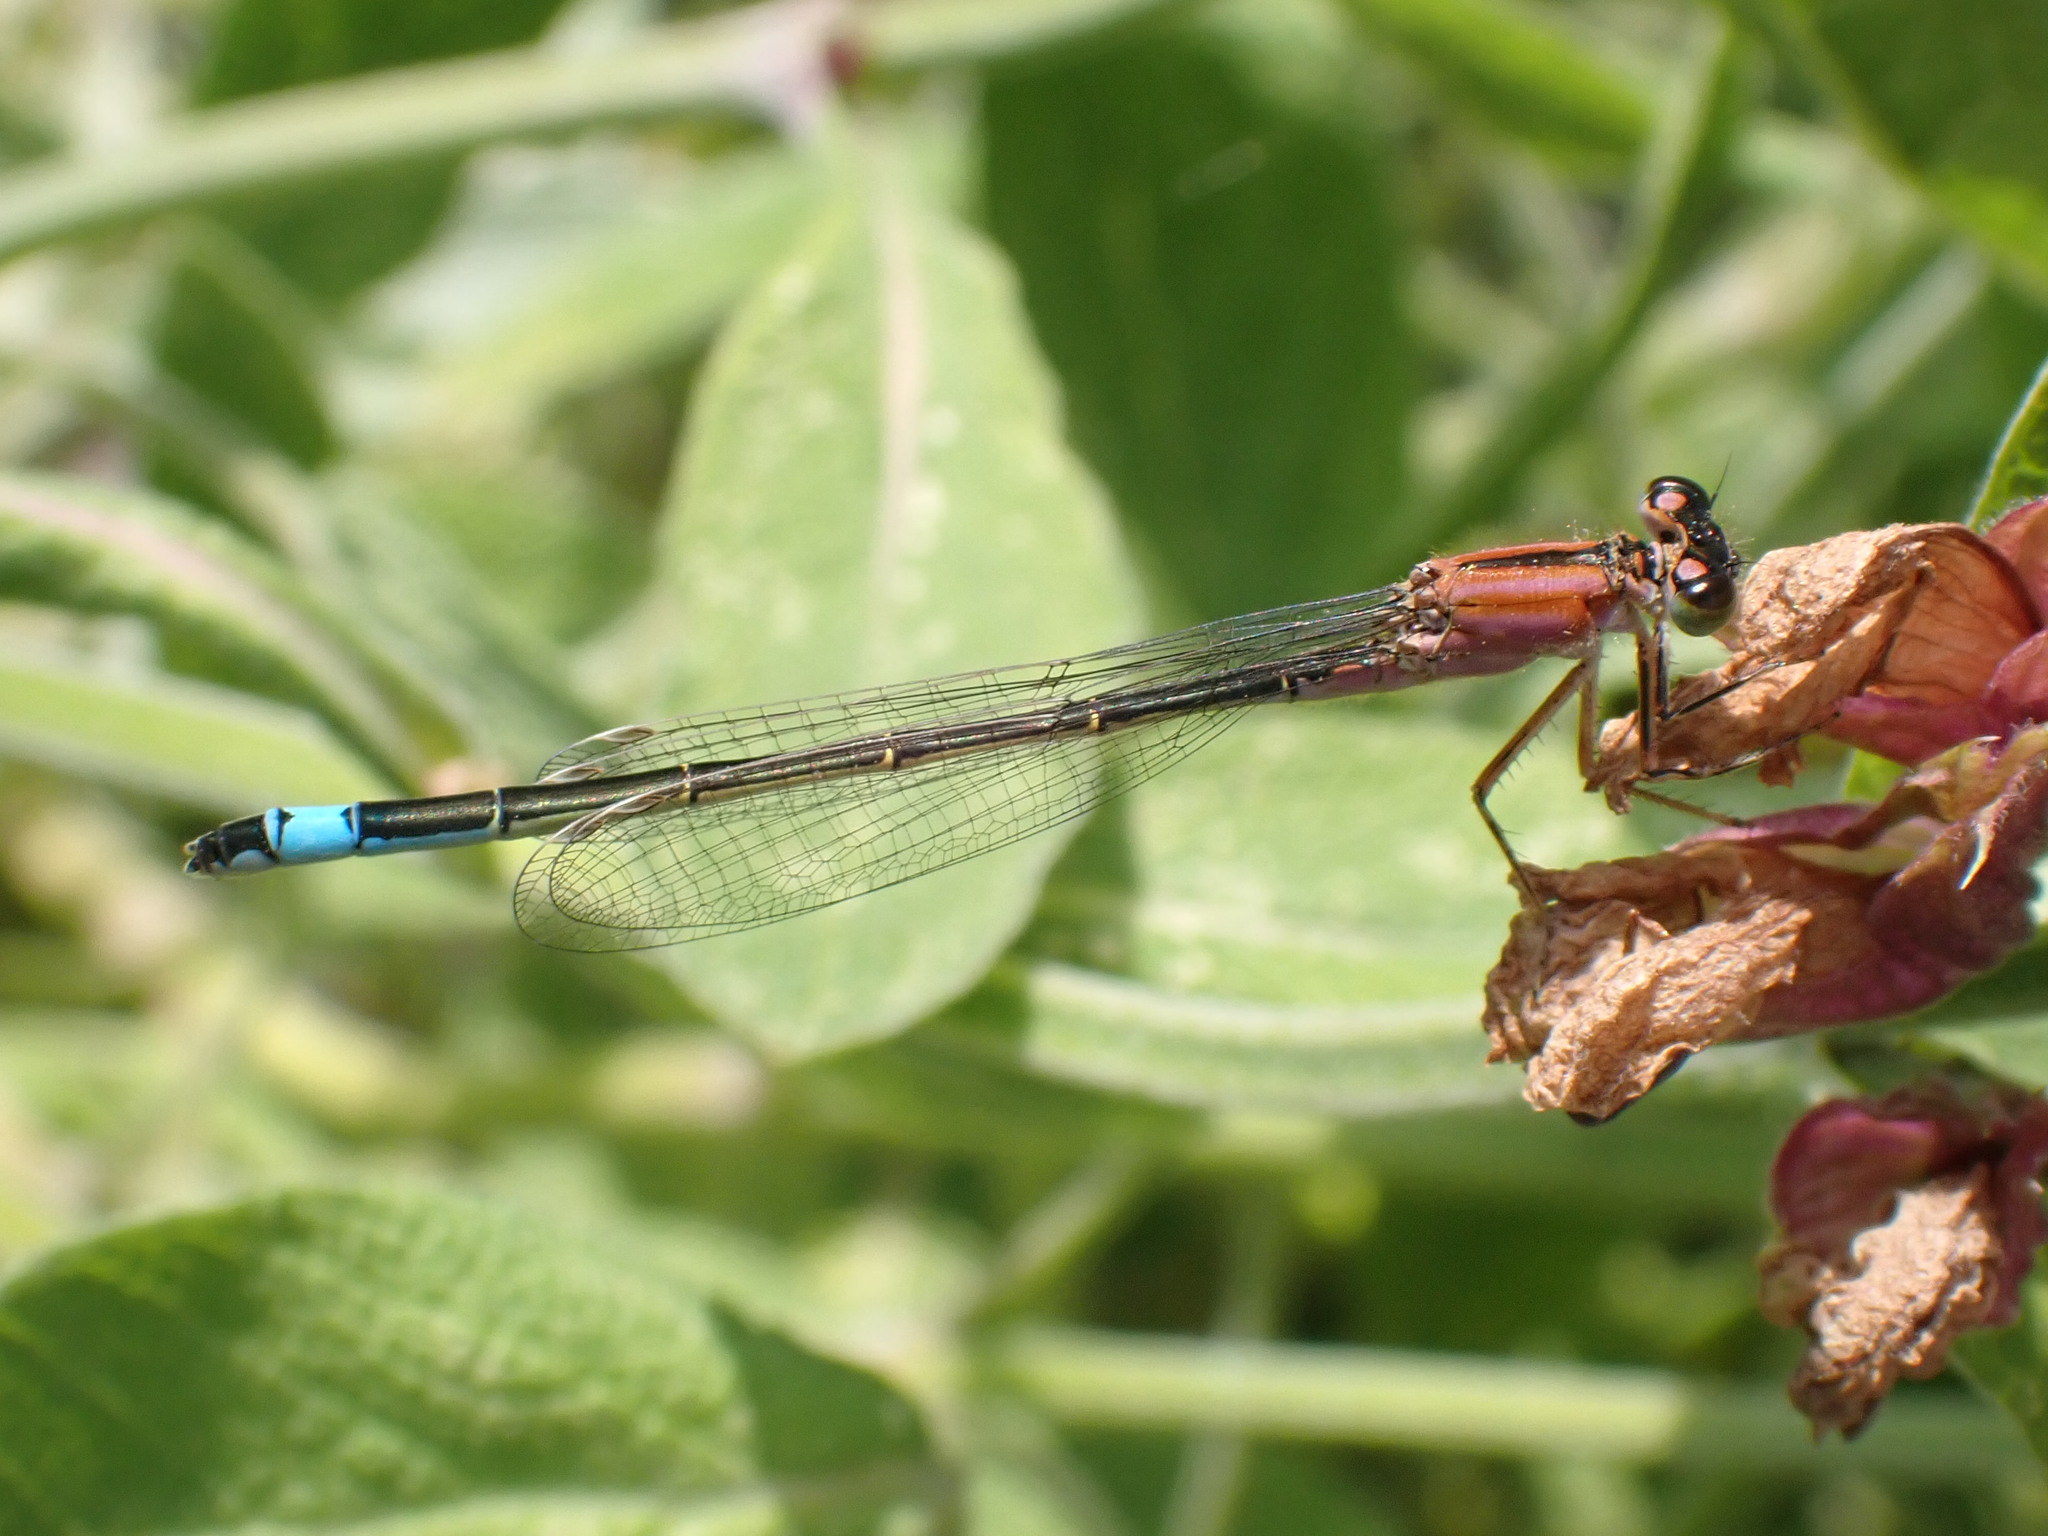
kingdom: Animalia
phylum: Arthropoda
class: Insecta
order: Odonata
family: Coenagrionidae
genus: Ischnura
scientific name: Ischnura elegans
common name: Blue-tailed damselfly
